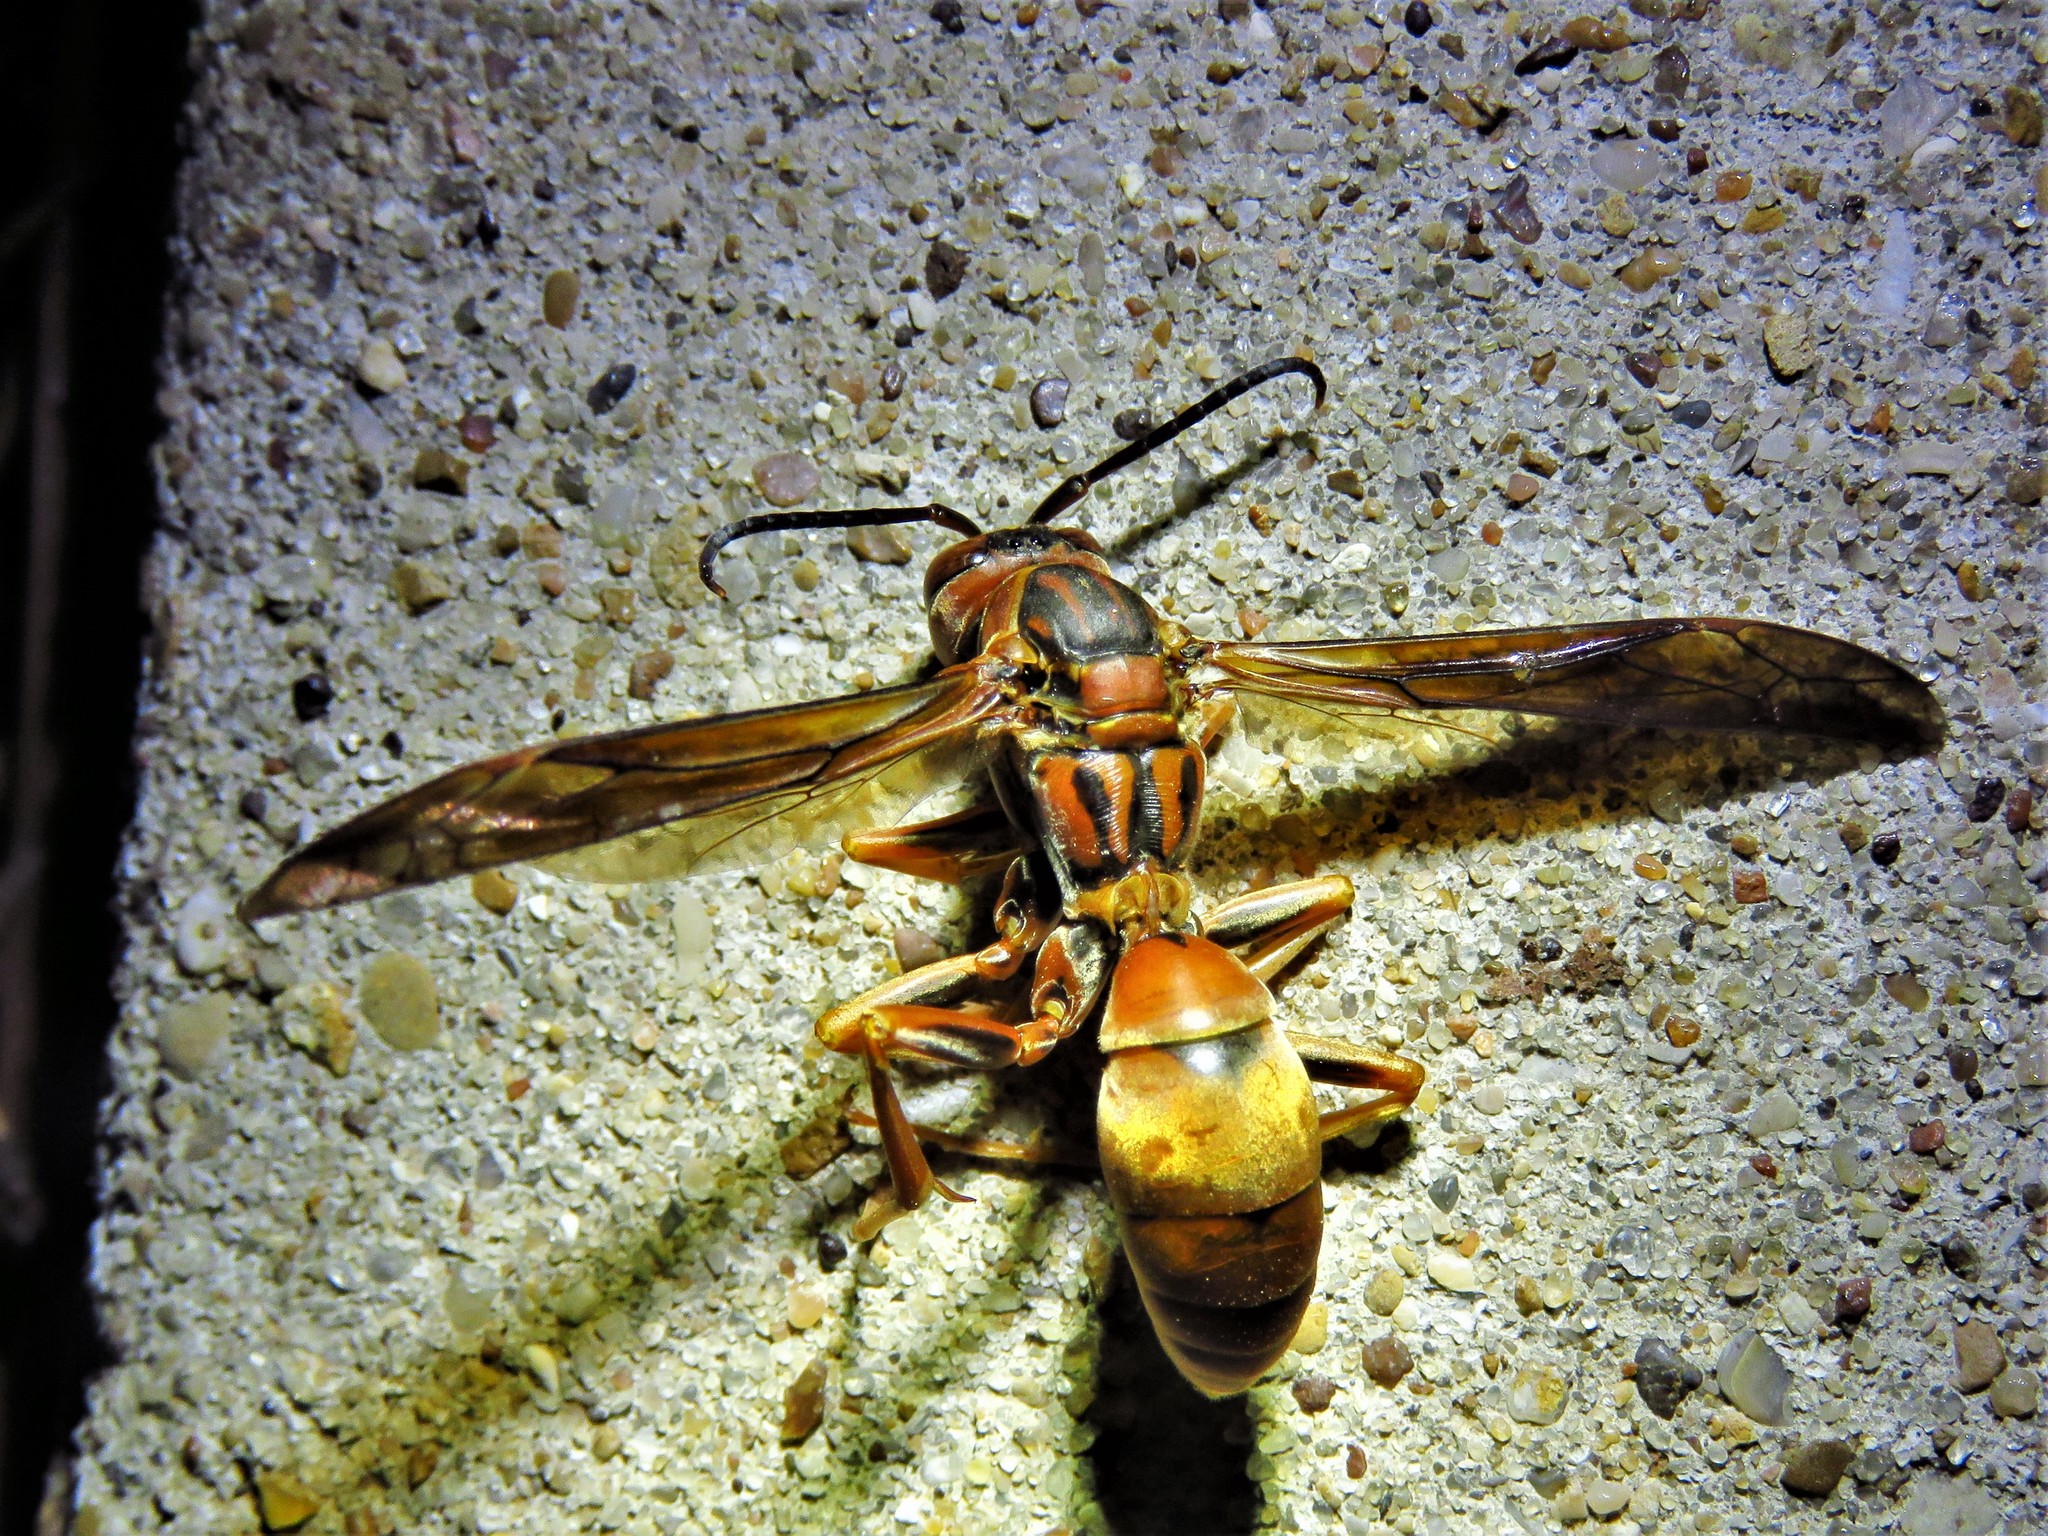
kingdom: Animalia
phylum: Arthropoda
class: Insecta
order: Hymenoptera
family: Eumenidae
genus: Polistes
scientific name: Polistes carolina
